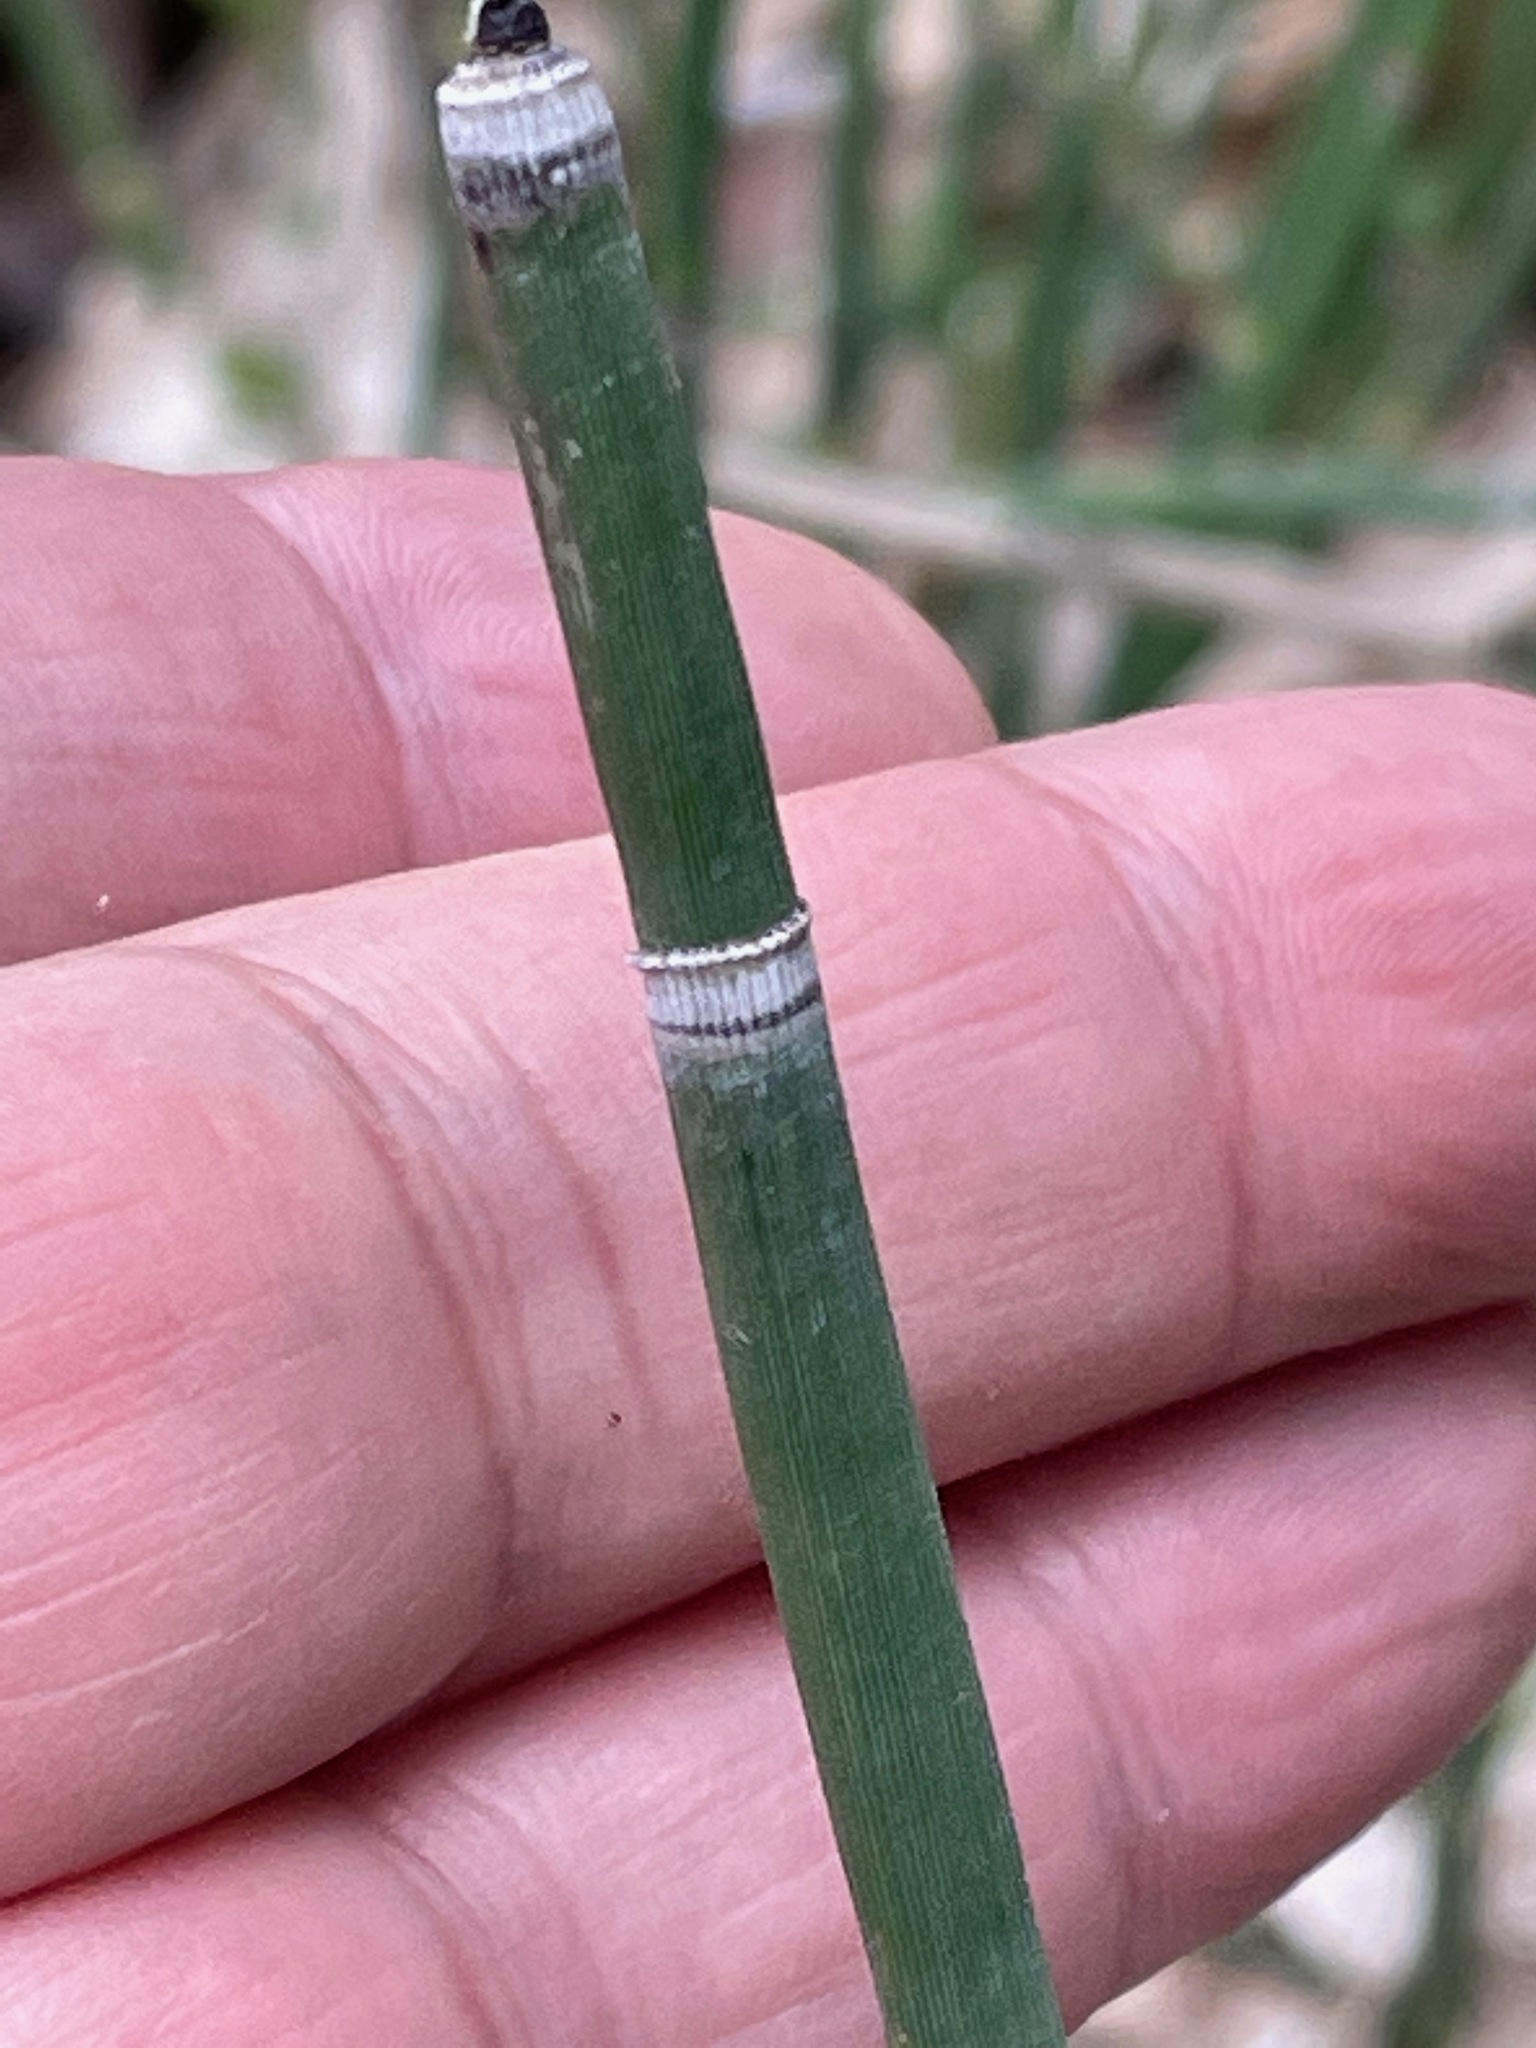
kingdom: Plantae
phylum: Tracheophyta
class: Polypodiopsida
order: Equisetales
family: Equisetaceae
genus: Equisetum
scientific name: Equisetum hyemale
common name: Rough horsetail
